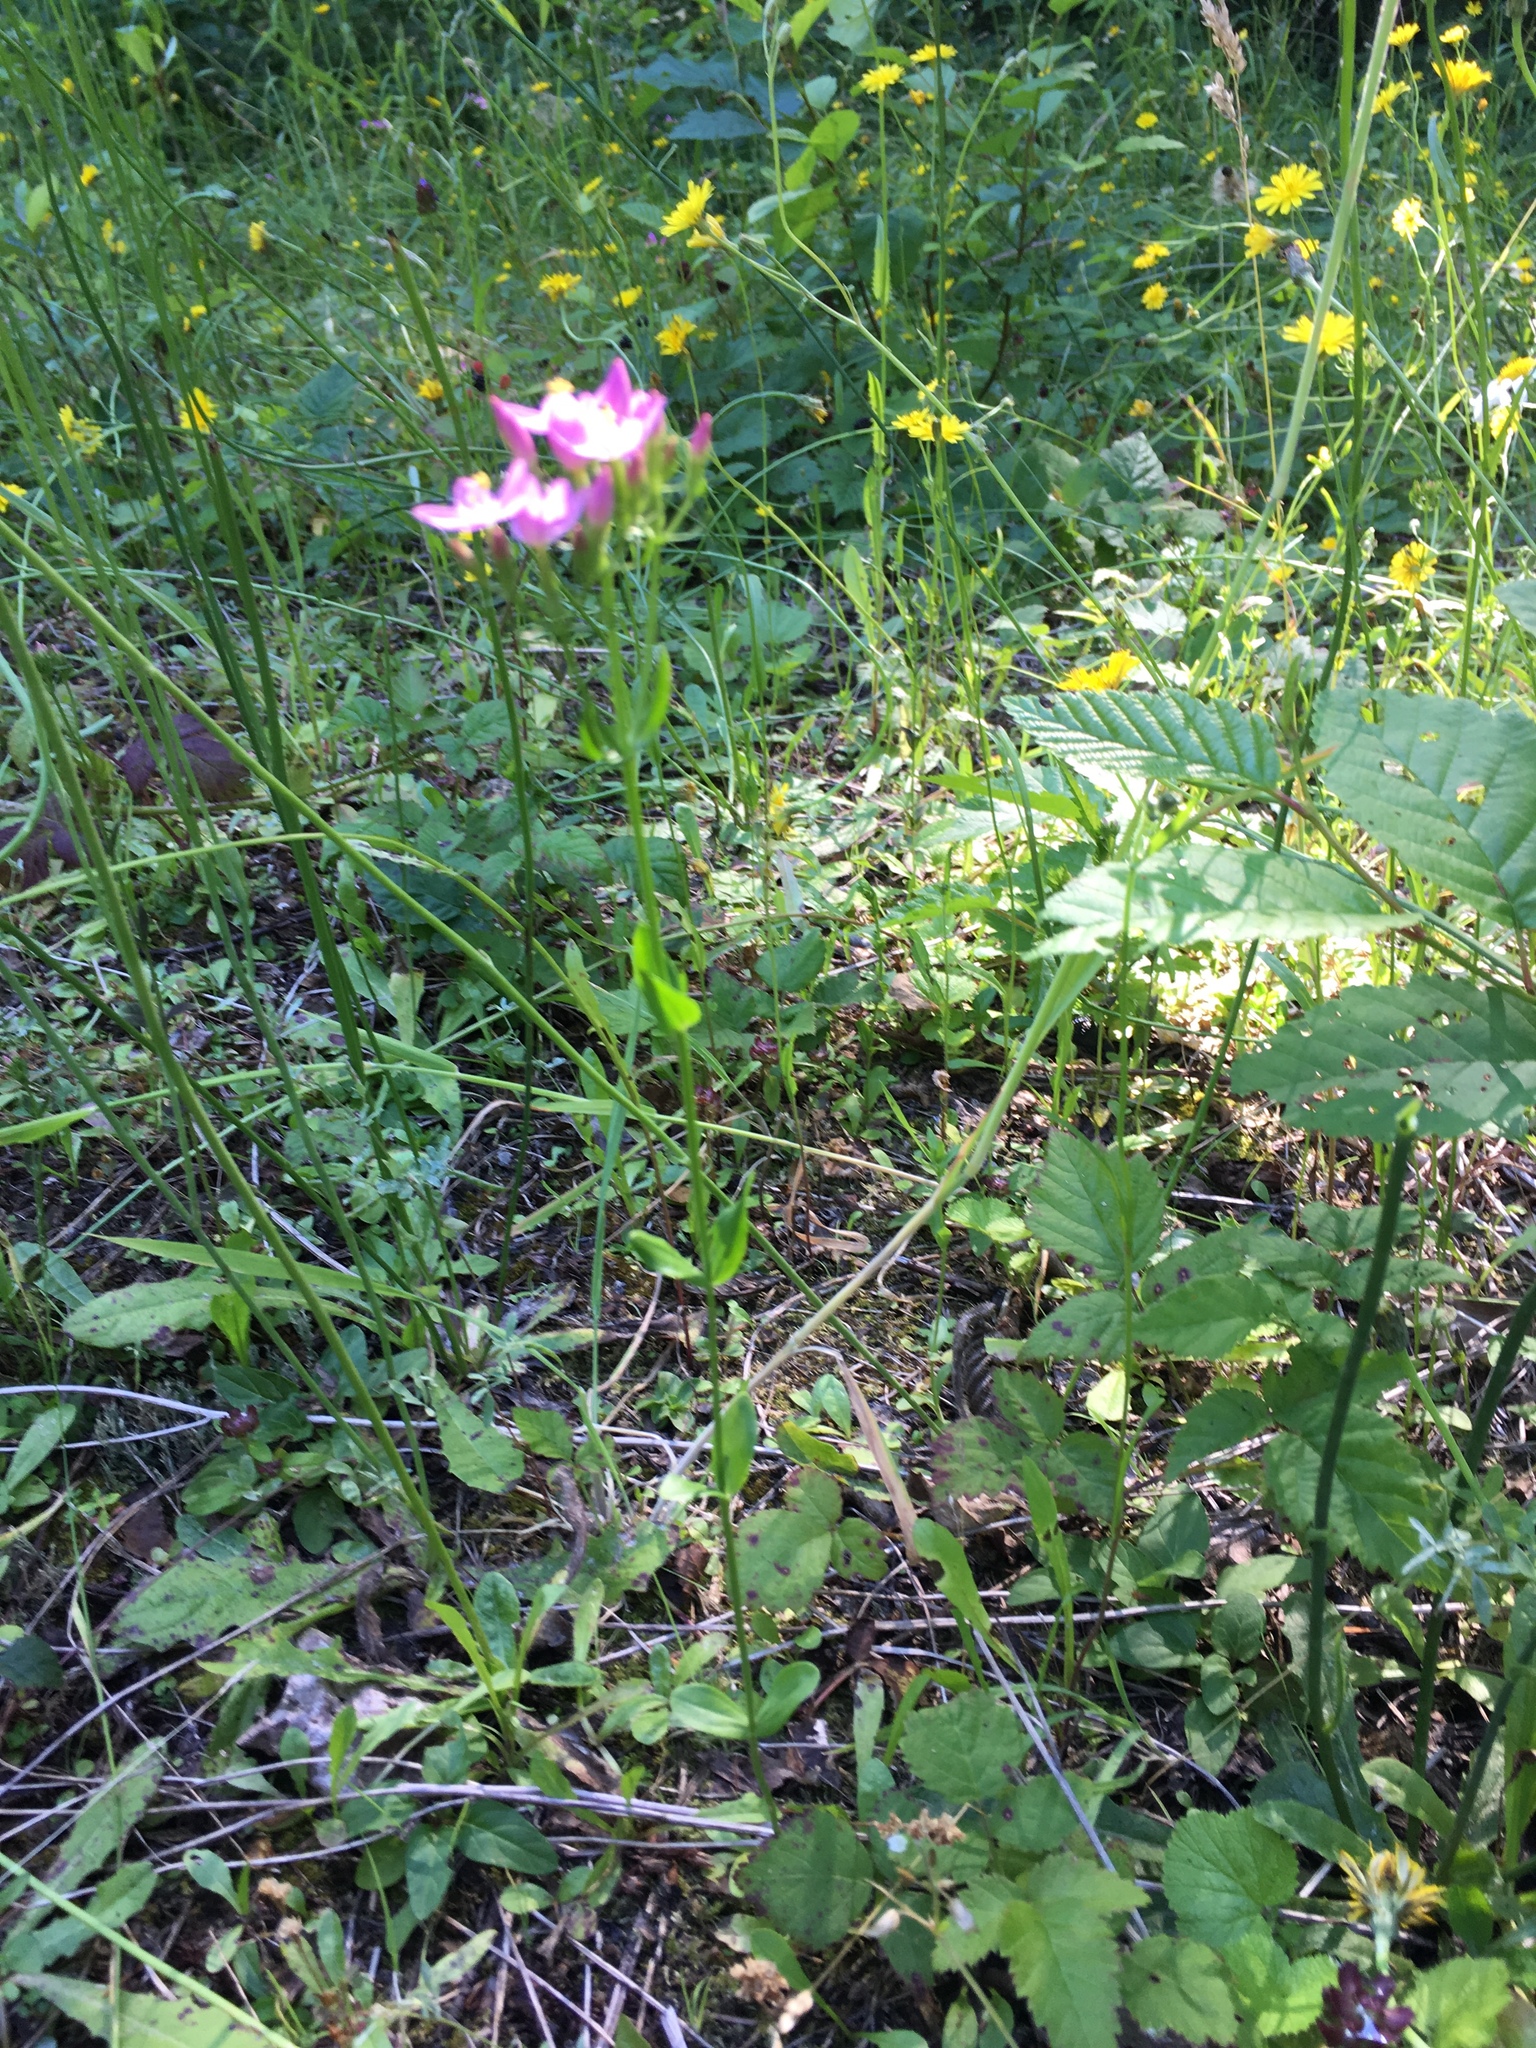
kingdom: Plantae
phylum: Tracheophyta
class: Magnoliopsida
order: Gentianales
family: Gentianaceae
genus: Centaurium
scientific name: Centaurium erythraea
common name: Common centaury
